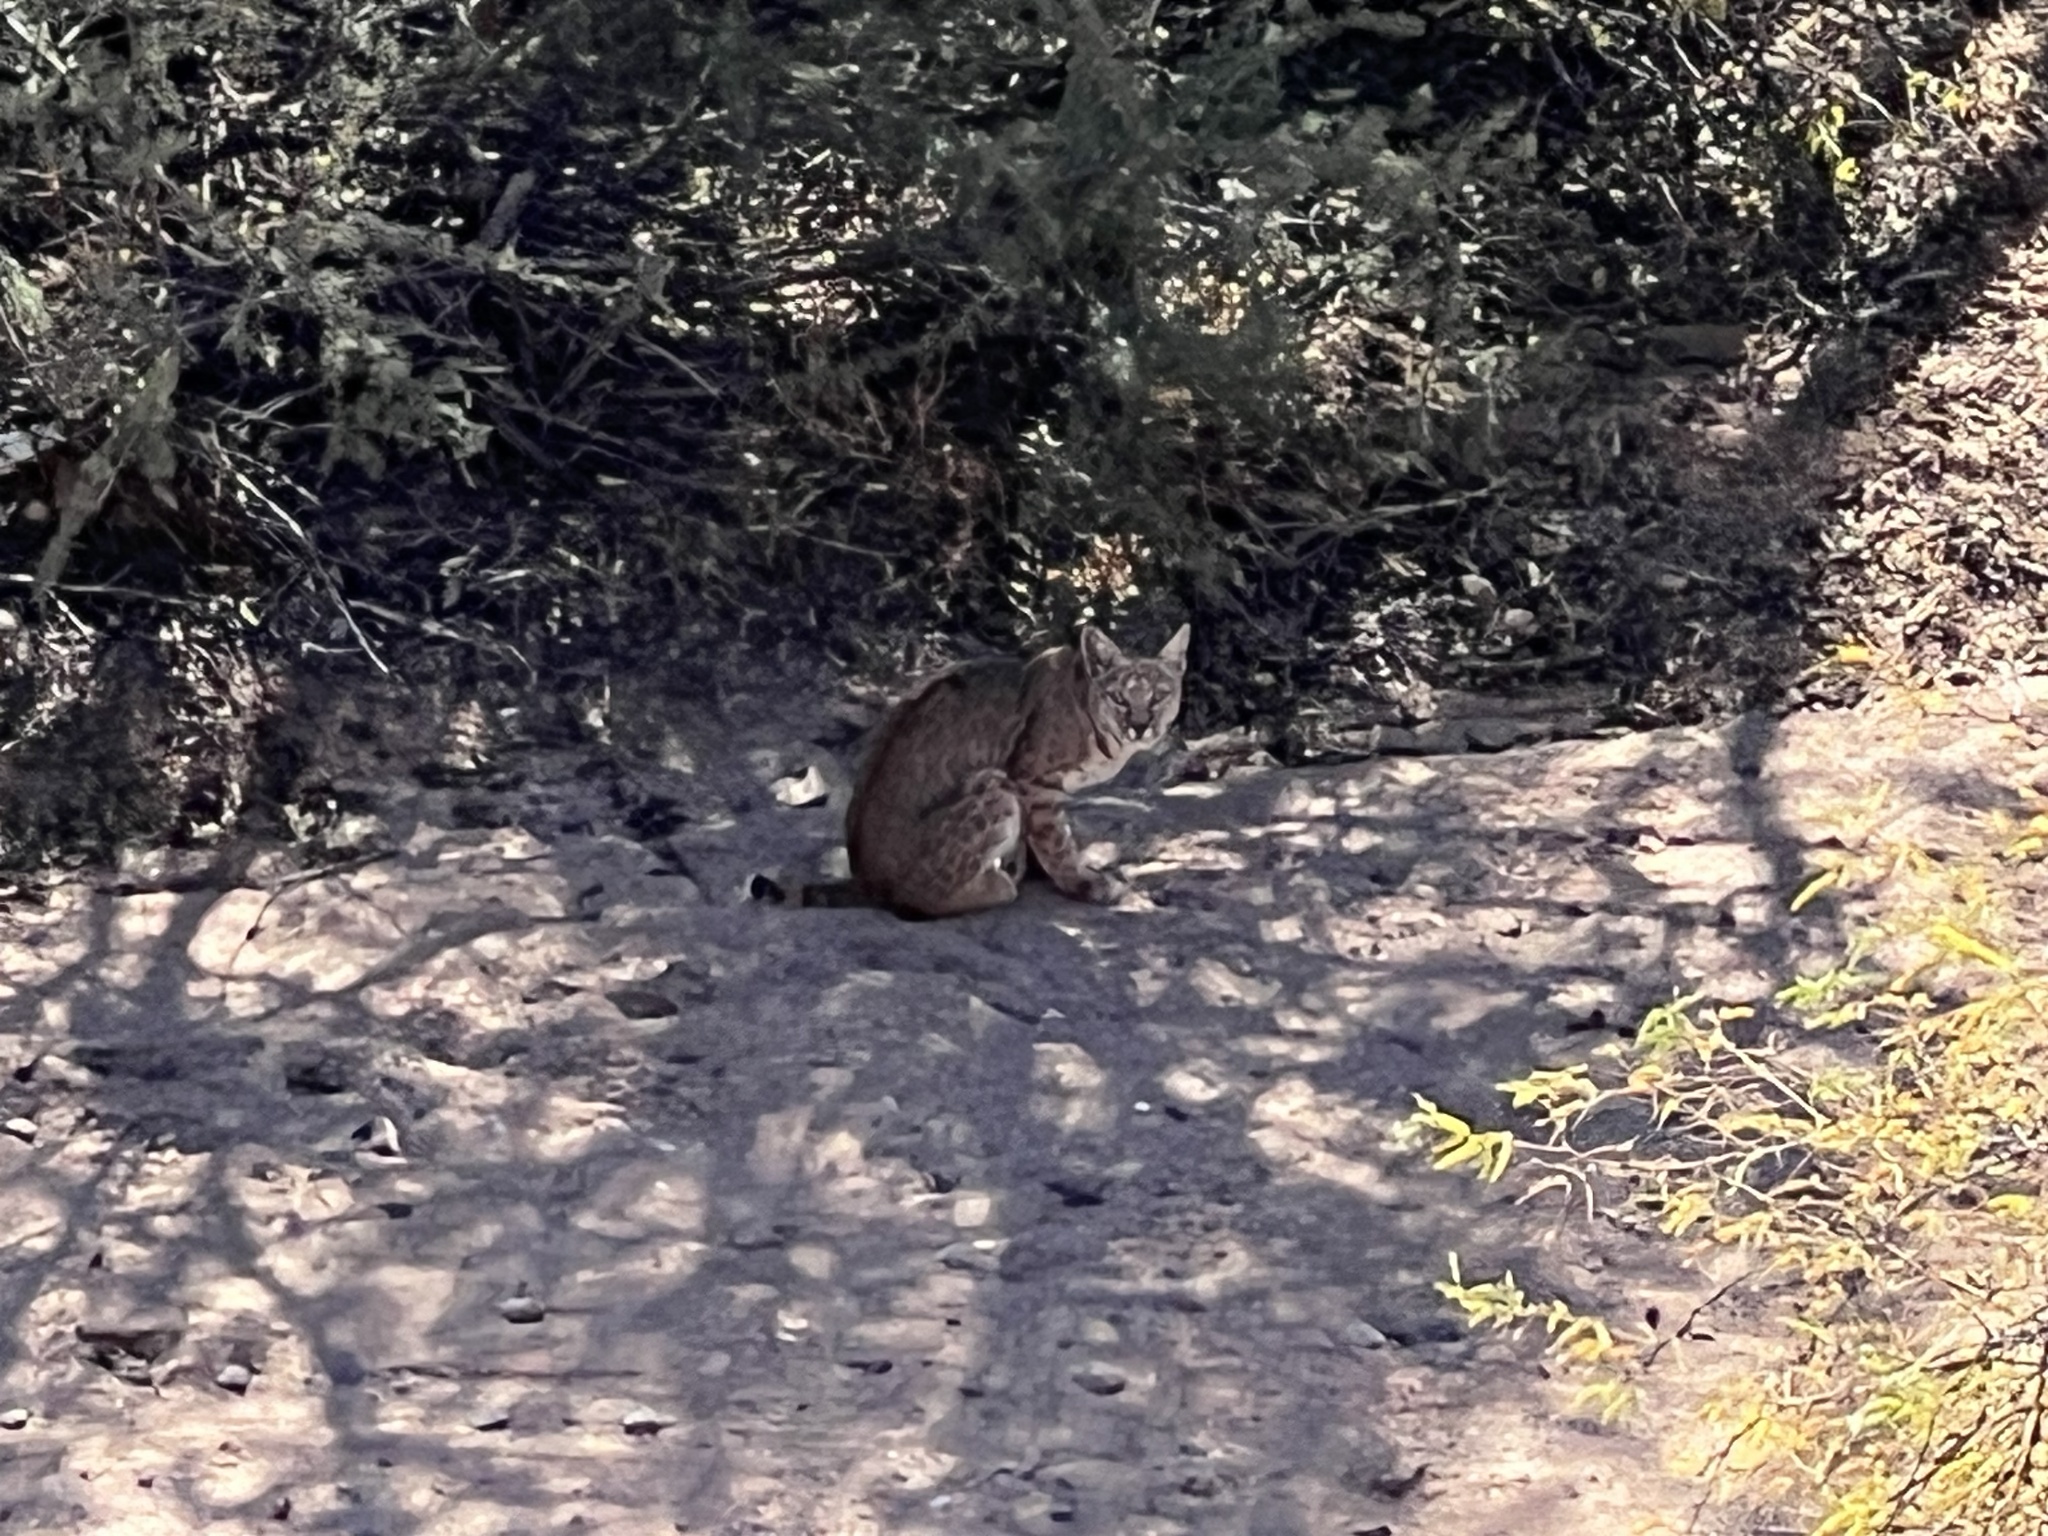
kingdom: Animalia
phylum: Chordata
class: Mammalia
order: Carnivora
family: Felidae
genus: Lynx
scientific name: Lynx rufus
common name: Bobcat
